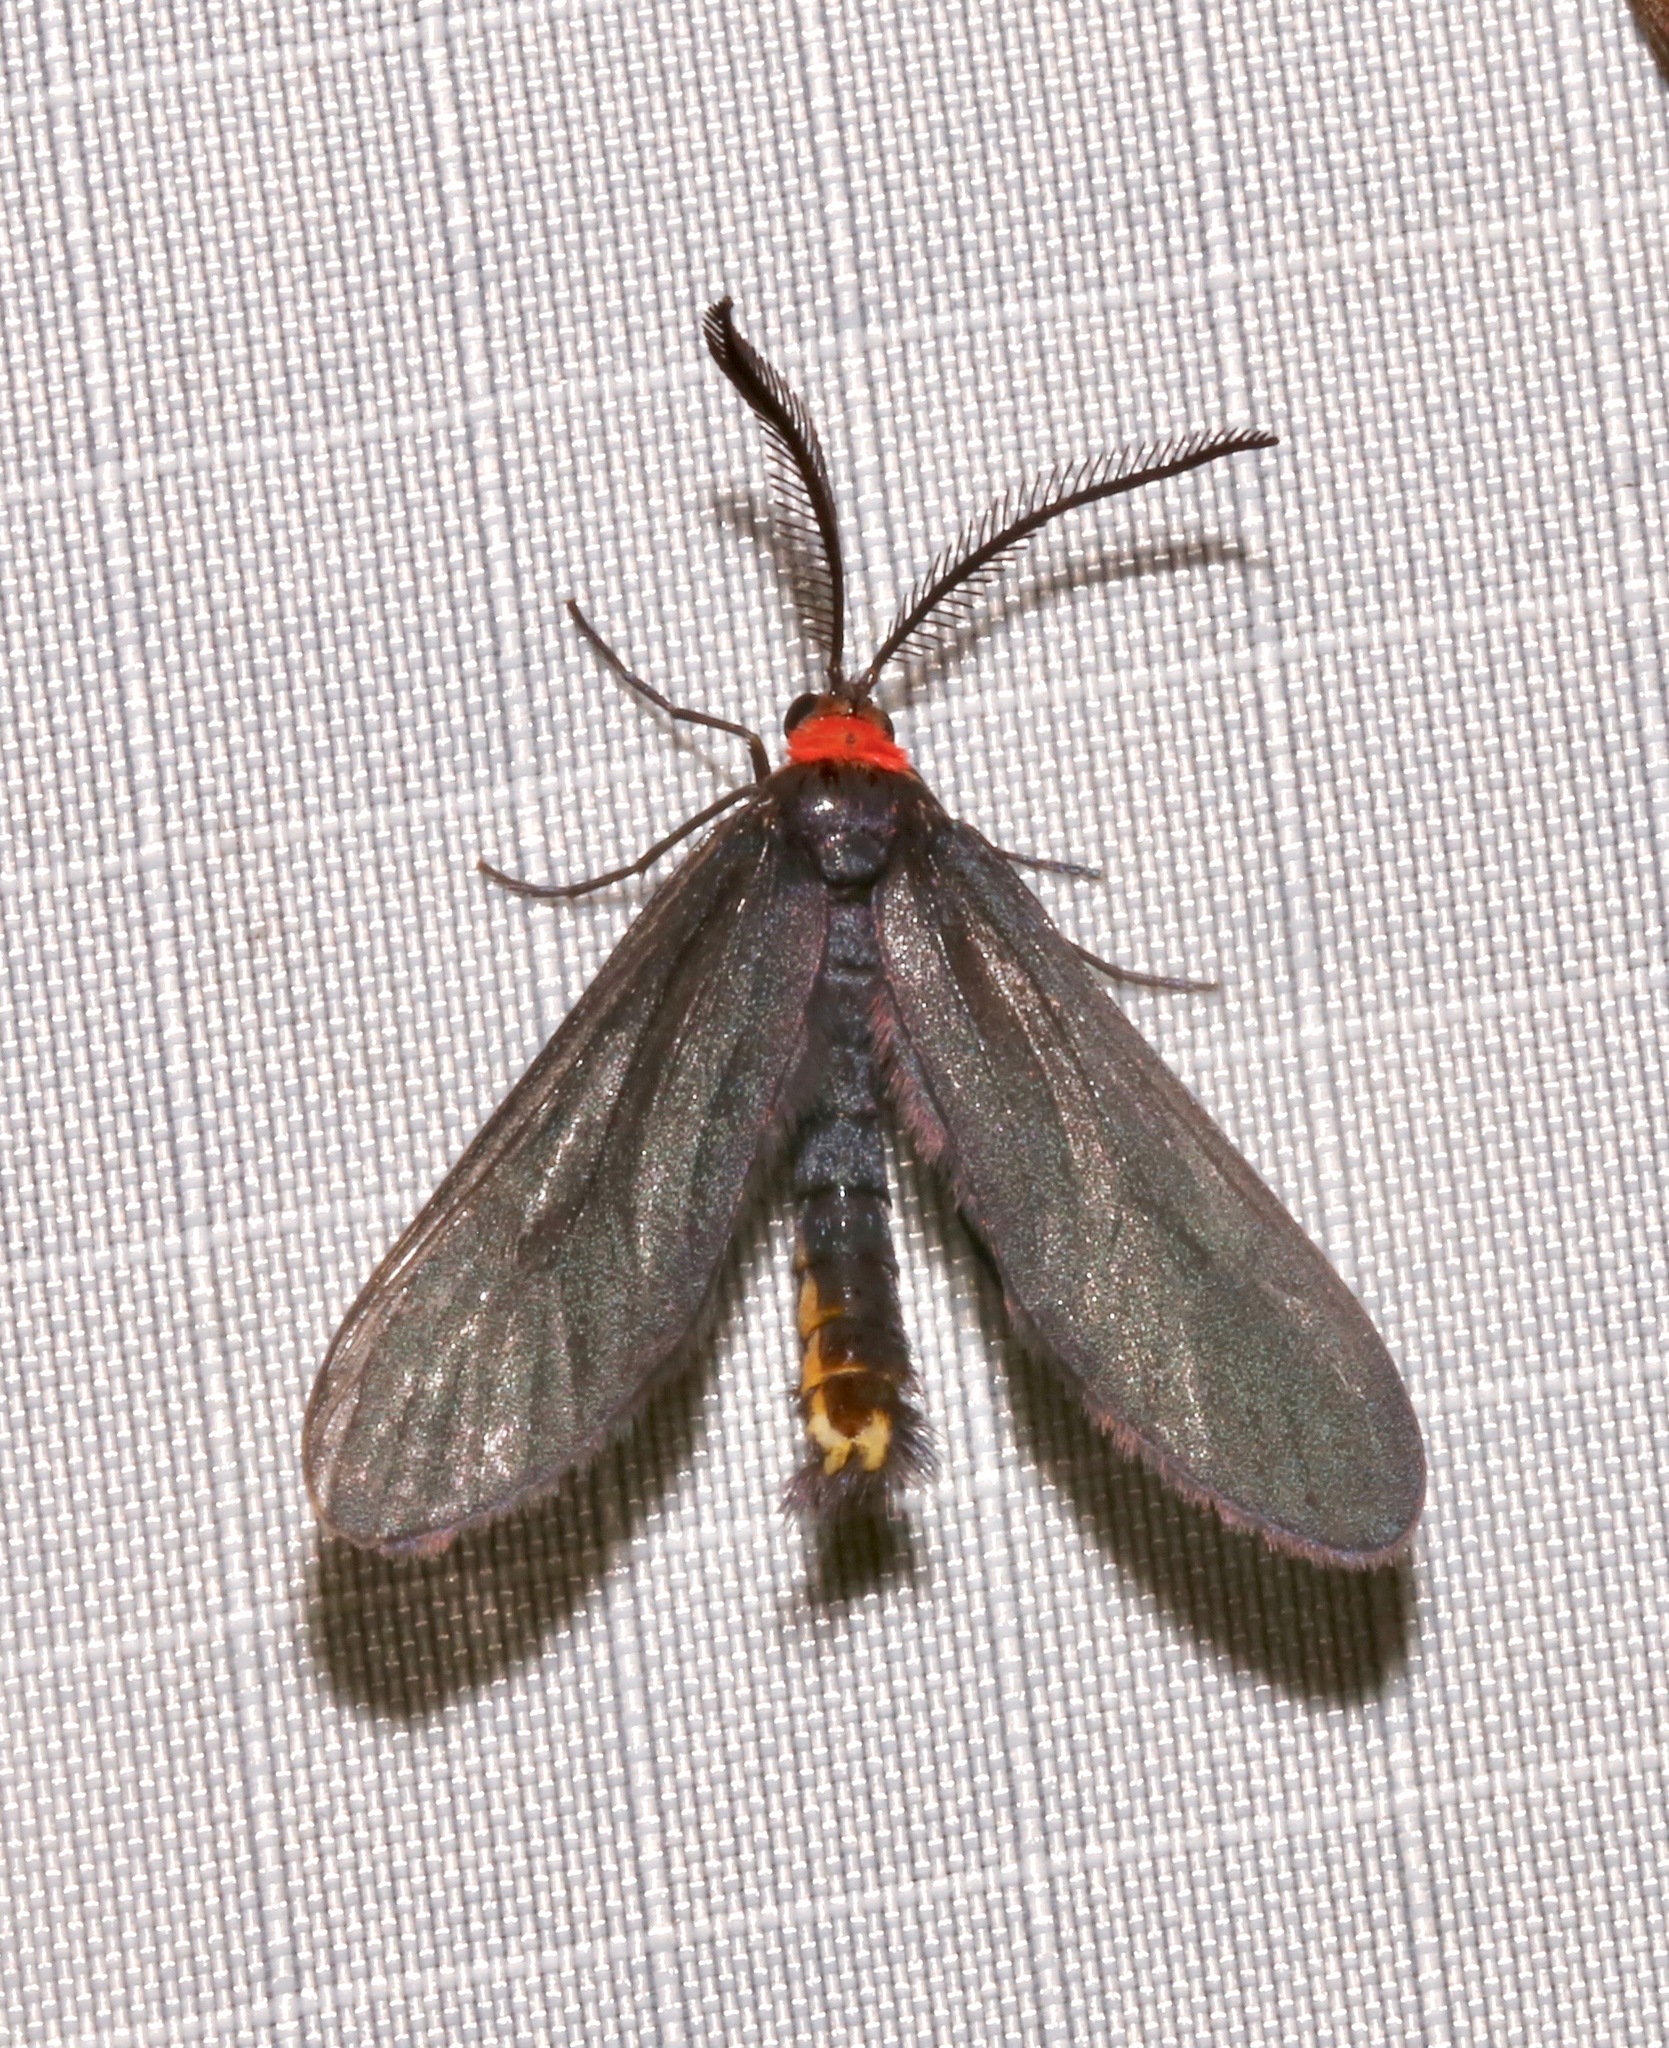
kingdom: Animalia
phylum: Arthropoda
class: Insecta
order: Lepidoptera
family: Zygaenidae
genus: Harrisina
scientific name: Harrisina americana
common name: Grapeleaf skeletonizer moth
